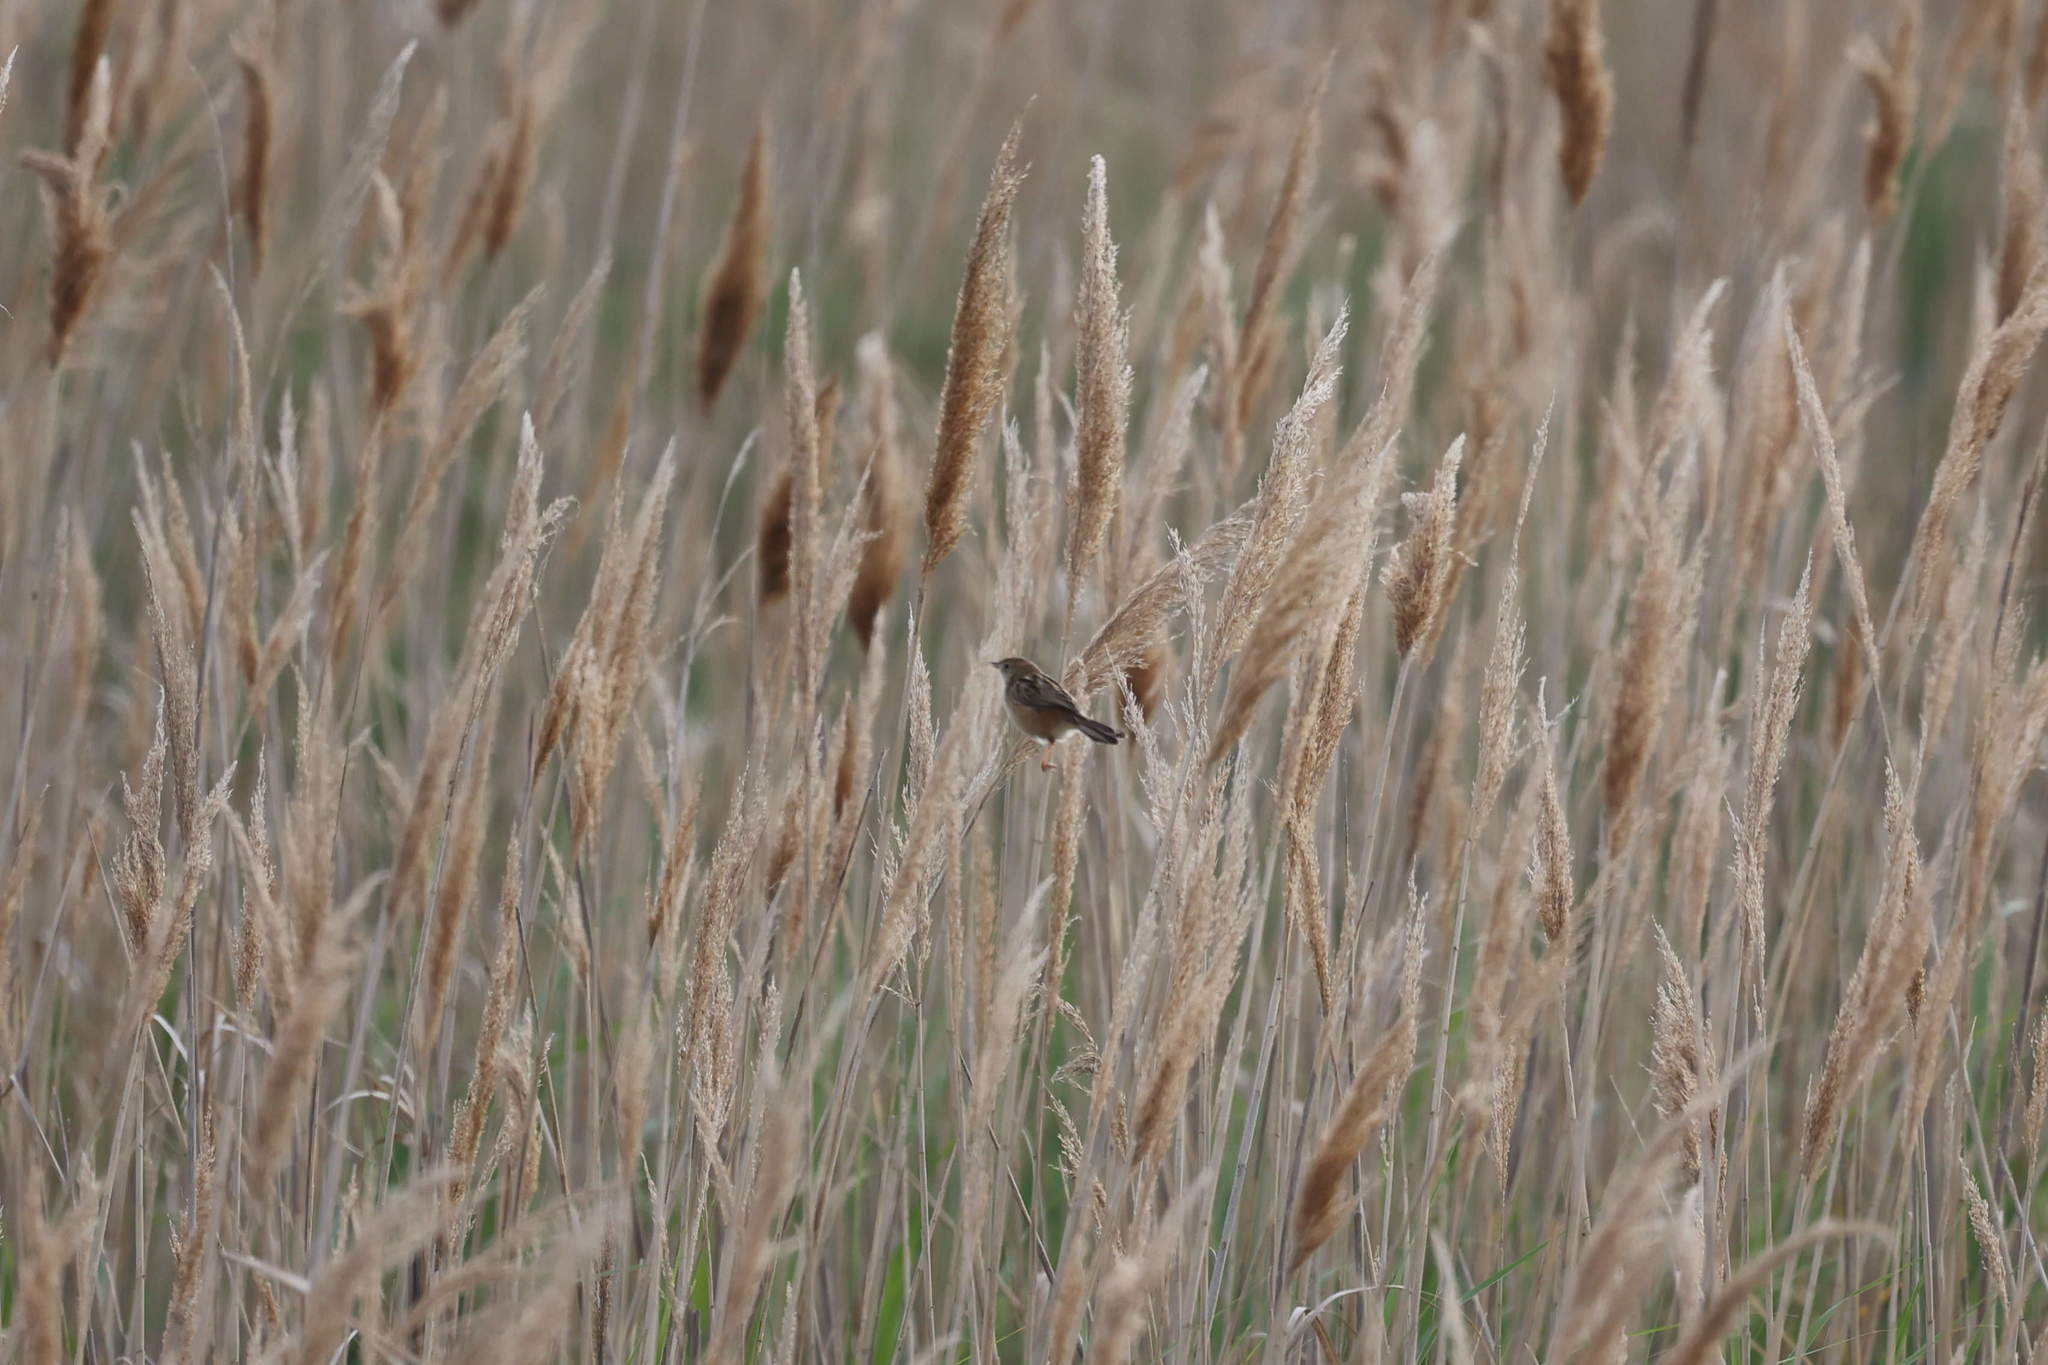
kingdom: Animalia
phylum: Chordata
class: Aves
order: Passeriformes
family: Cisticolidae
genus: Cisticola
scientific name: Cisticola juncidis
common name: Zitting cisticola
